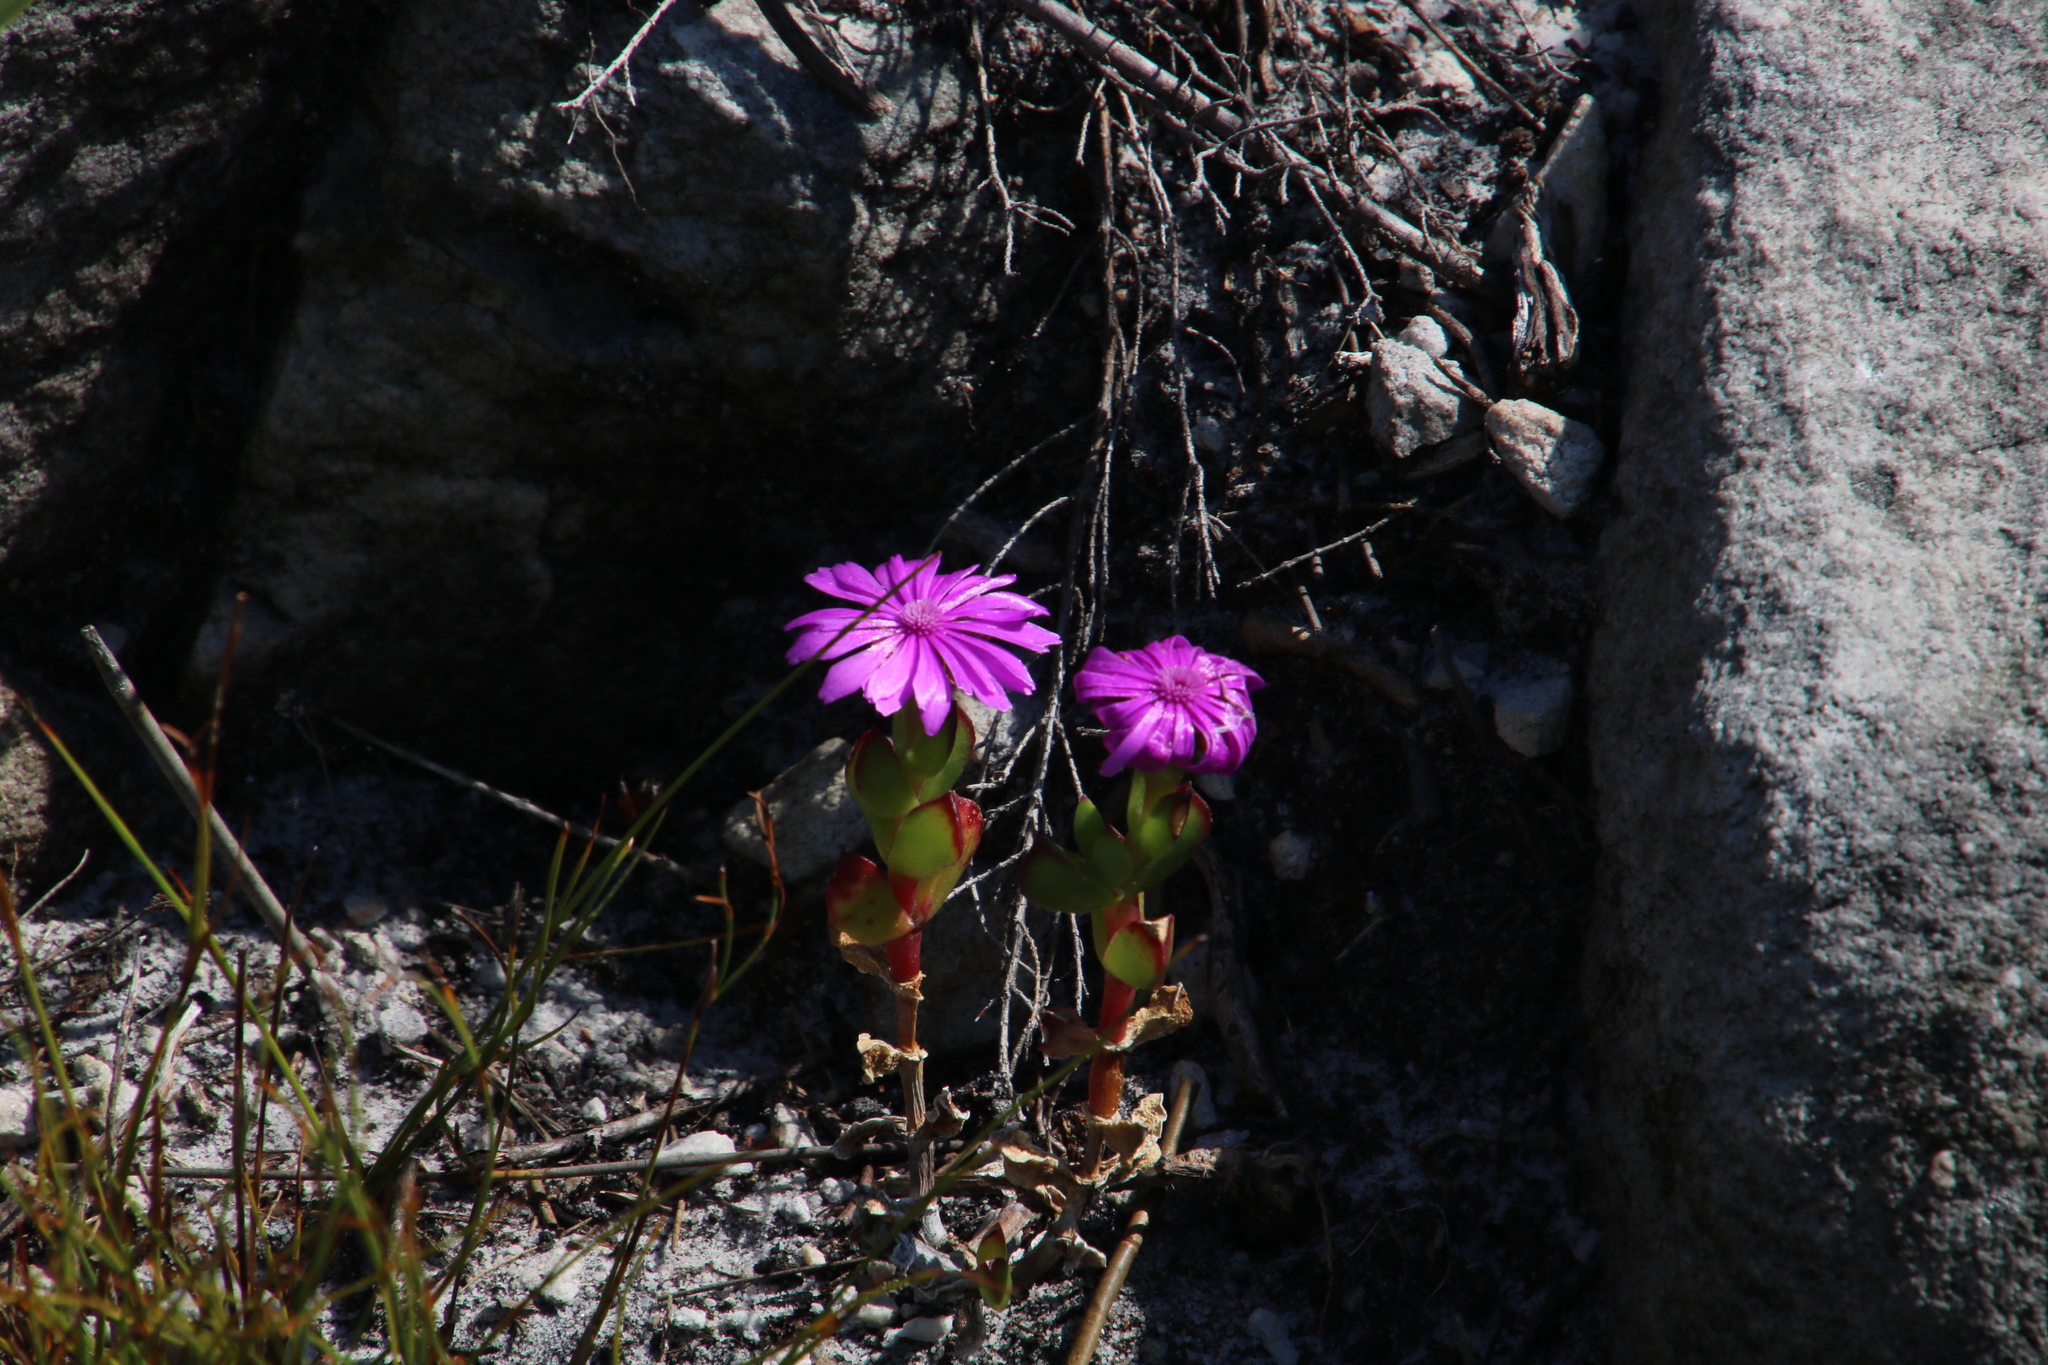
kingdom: Plantae
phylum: Tracheophyta
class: Magnoliopsida
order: Caryophyllales
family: Aizoaceae
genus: Erepsia
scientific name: Erepsia inclaudens
